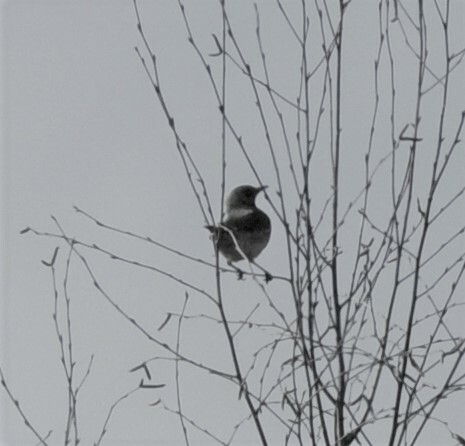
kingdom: Animalia
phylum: Chordata
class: Aves
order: Passeriformes
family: Turdidae
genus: Turdus
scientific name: Turdus pilaris
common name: Fieldfare
